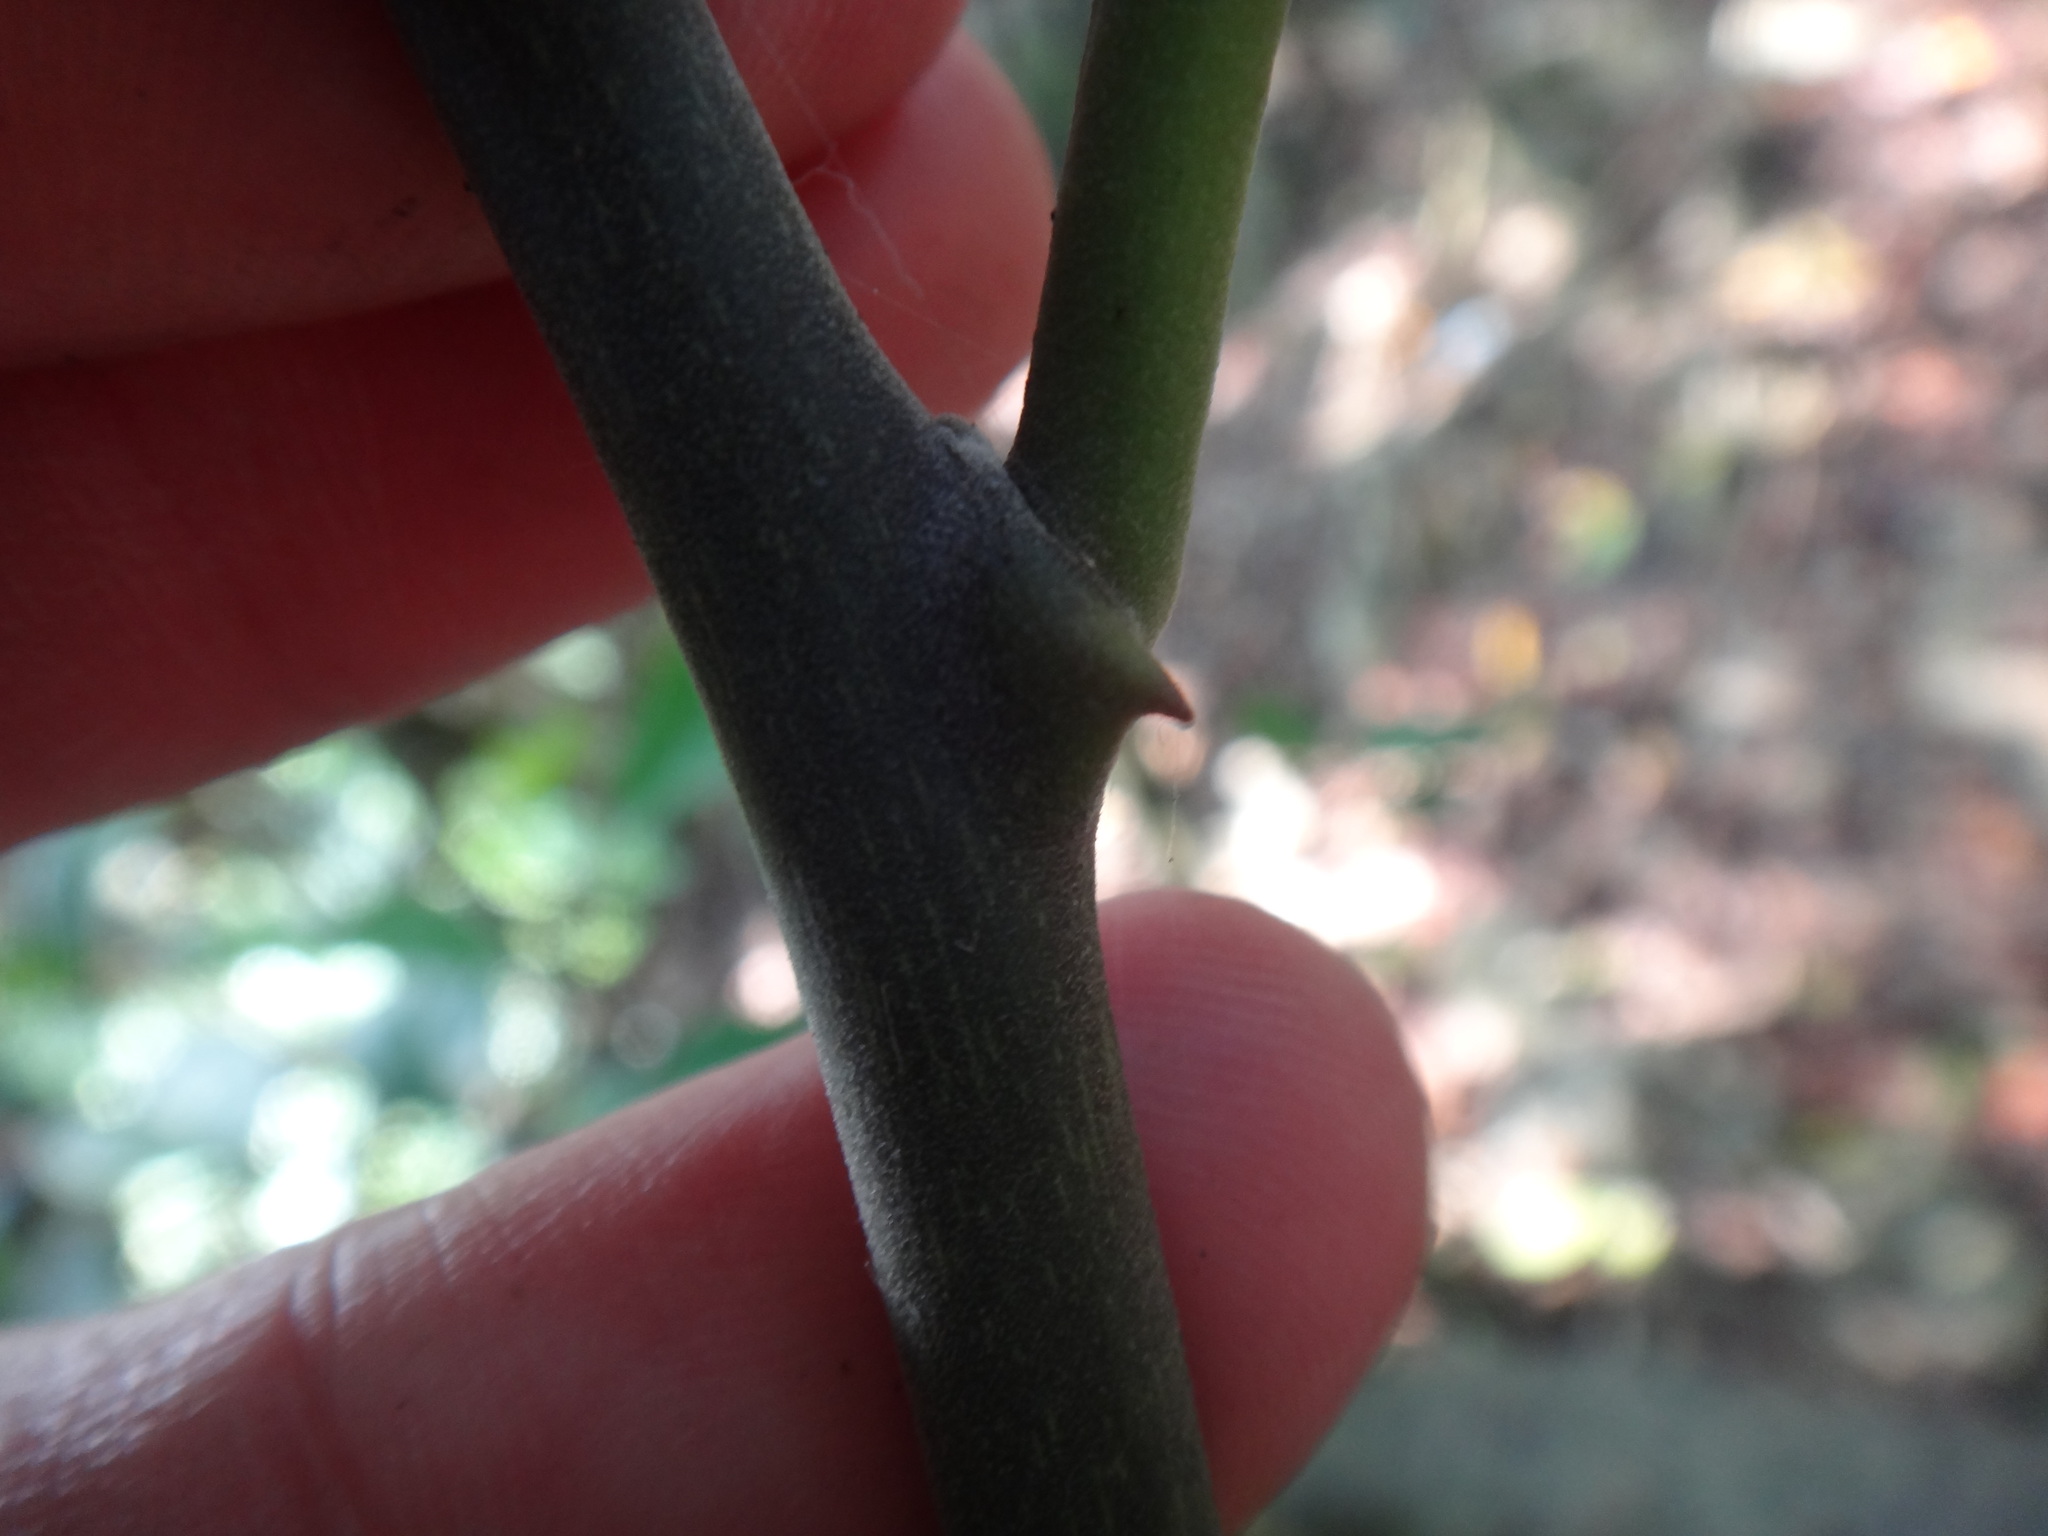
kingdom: Plantae
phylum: Tracheophyta
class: Magnoliopsida
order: Brassicales
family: Capparaceae
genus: Capparis
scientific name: Capparis formosana
